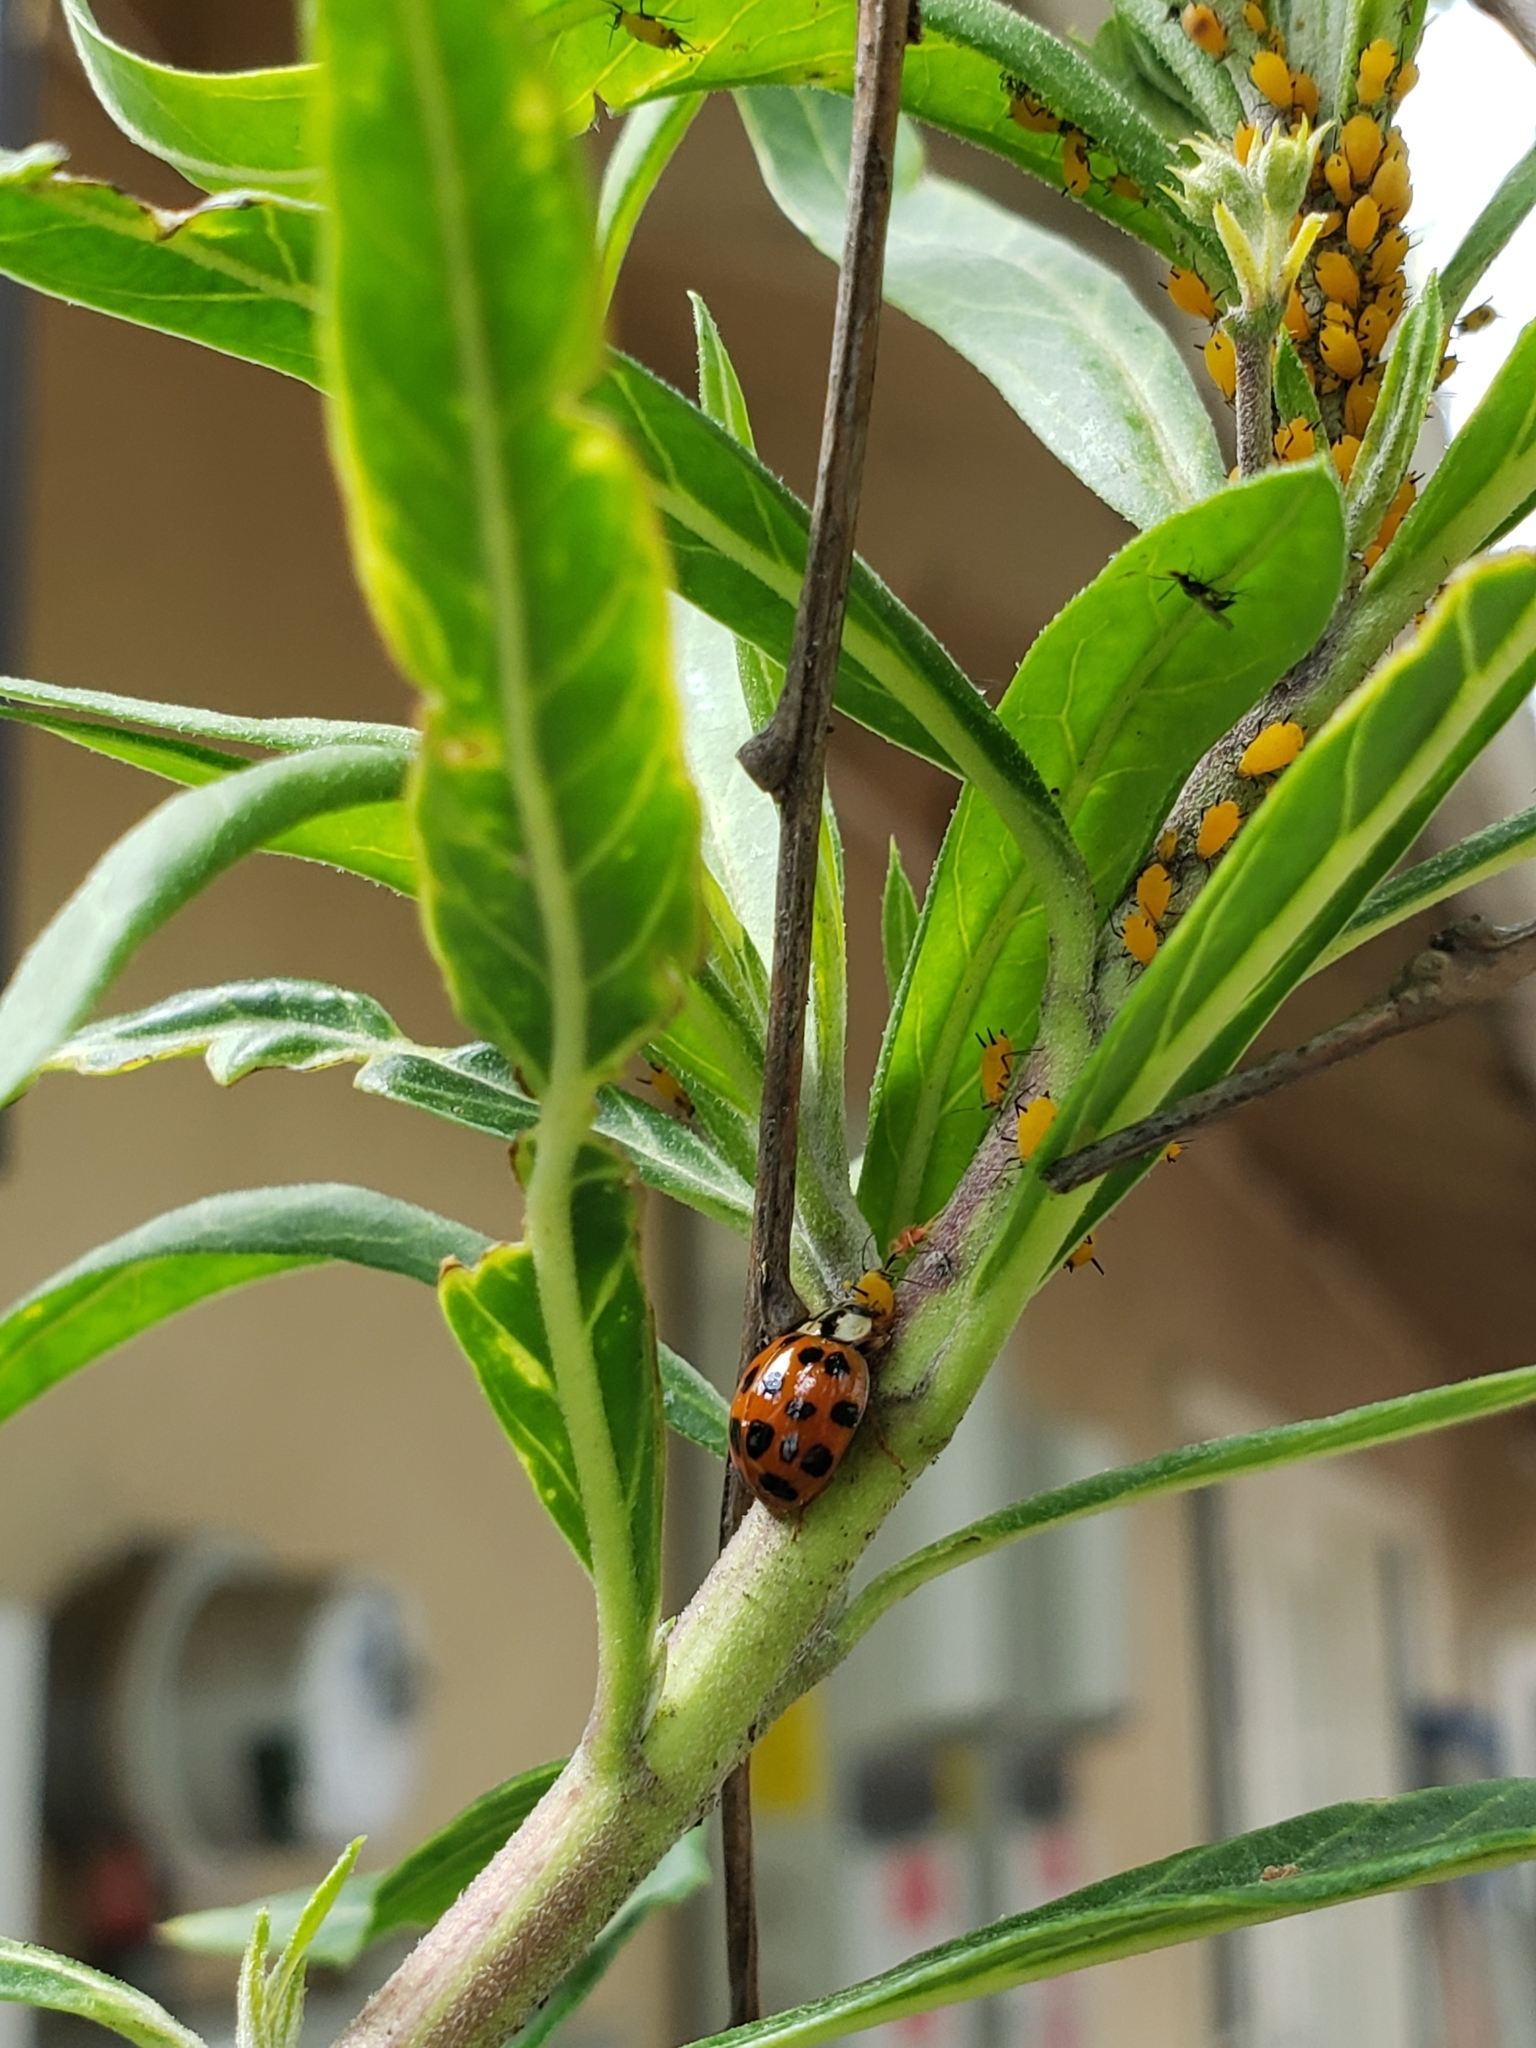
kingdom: Animalia
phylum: Arthropoda
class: Insecta
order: Coleoptera
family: Coccinellidae
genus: Harmonia
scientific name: Harmonia axyridis
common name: Harlequin ladybird
